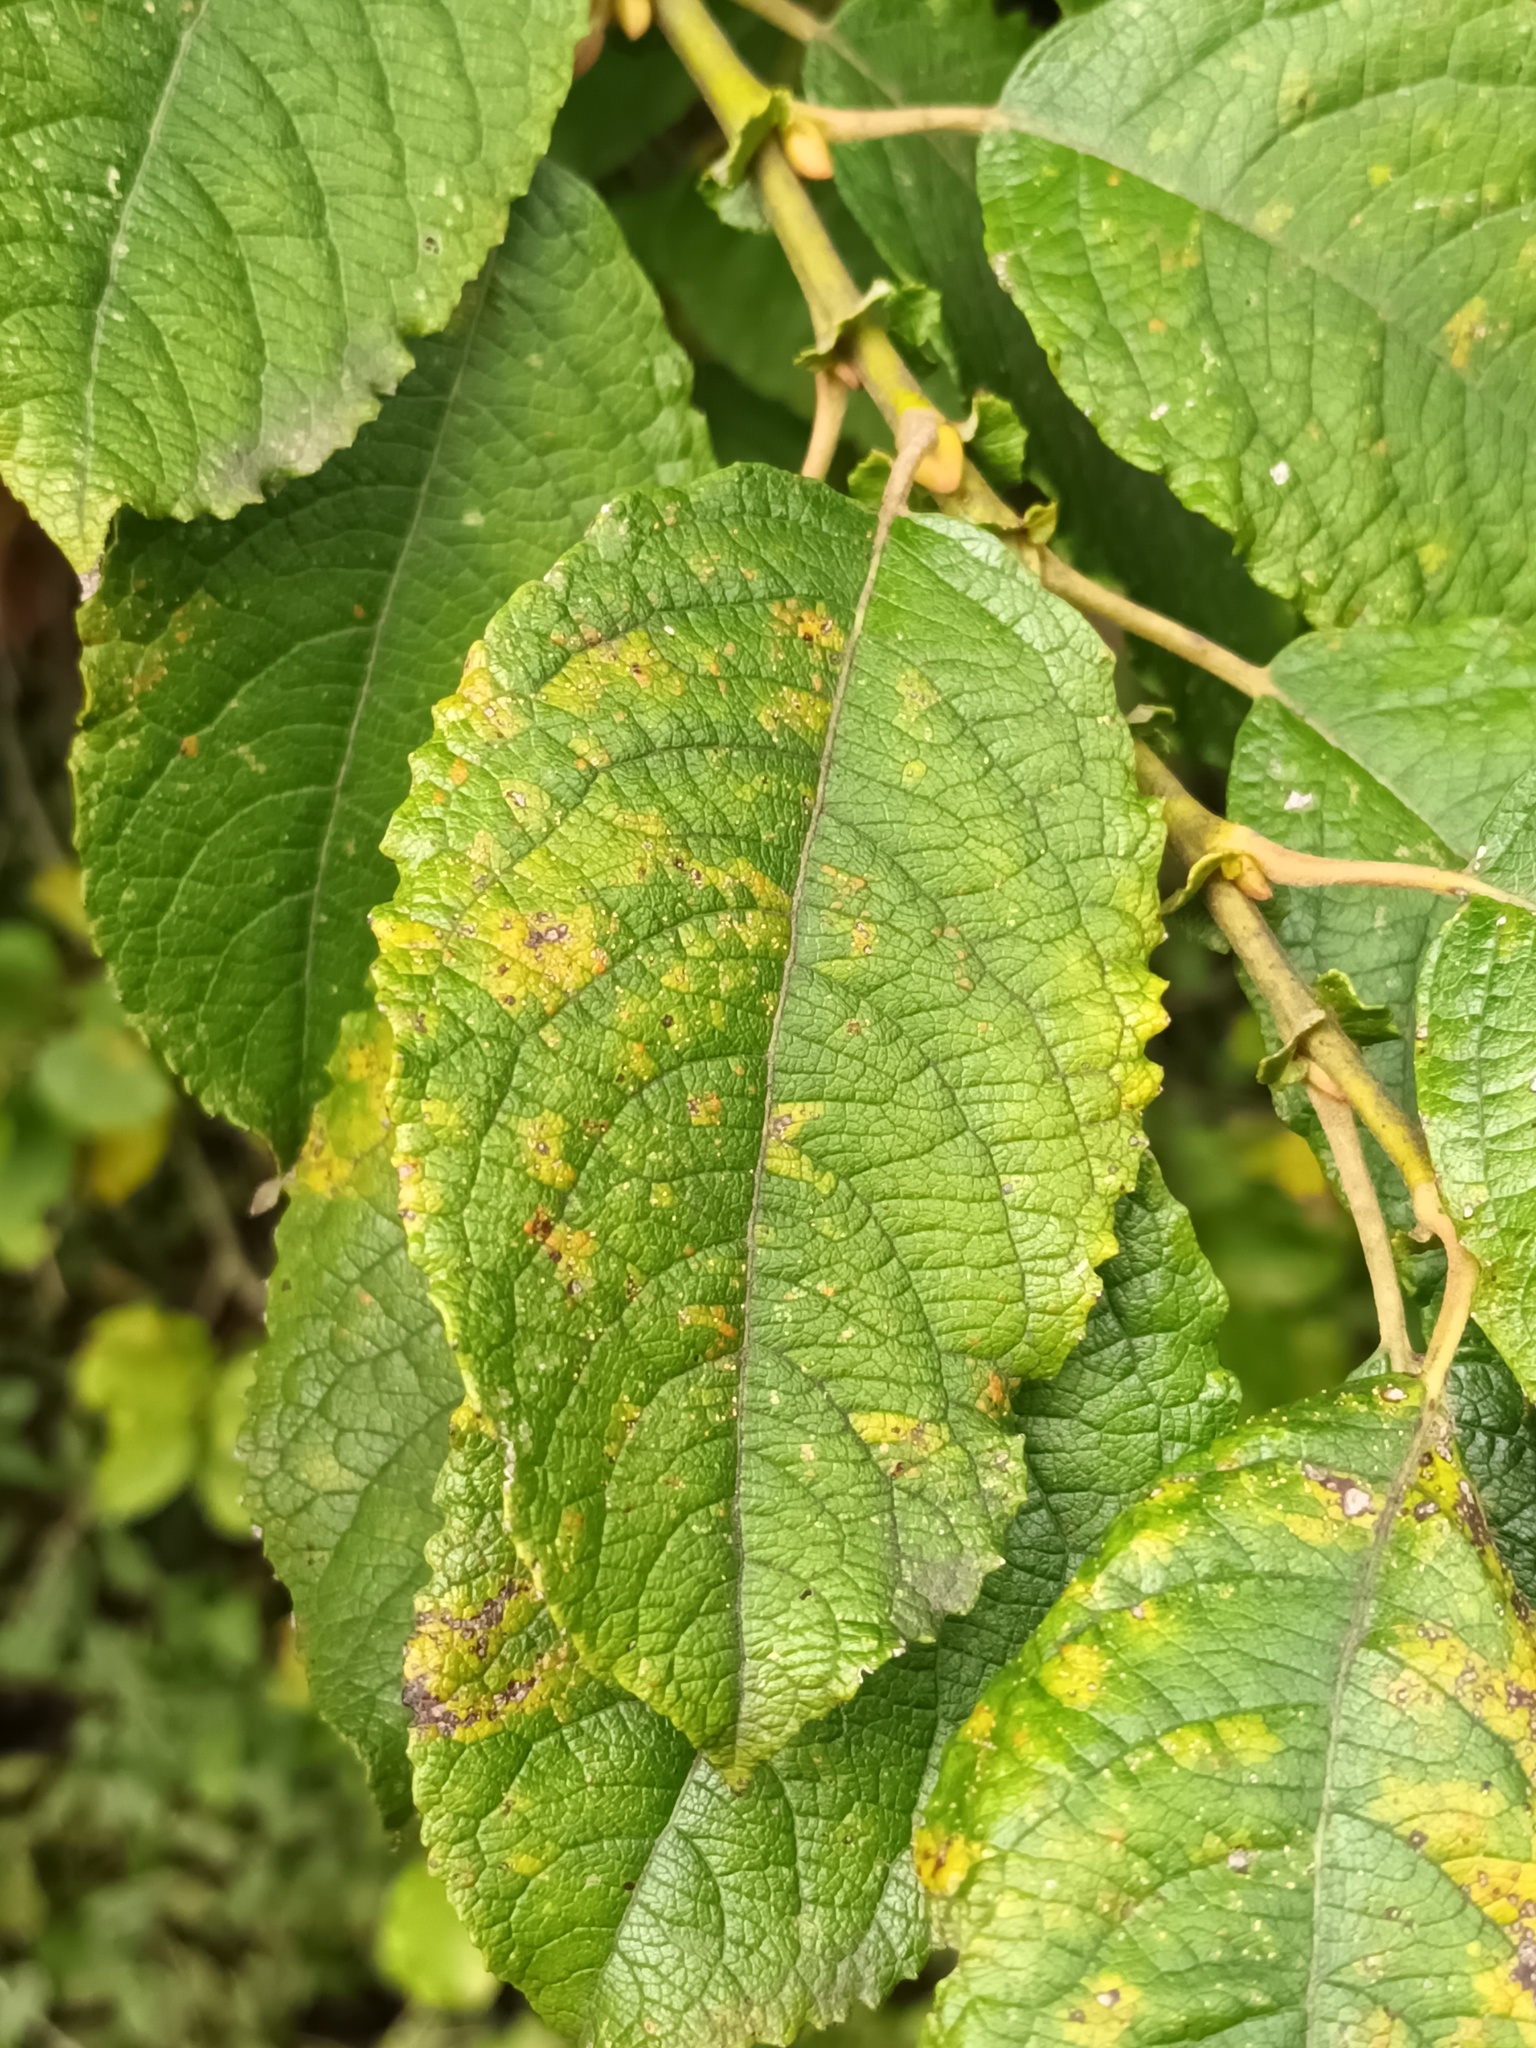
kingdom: Plantae
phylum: Tracheophyta
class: Magnoliopsida
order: Malpighiales
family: Salicaceae
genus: Salix
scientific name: Salix caprea
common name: Goat willow
